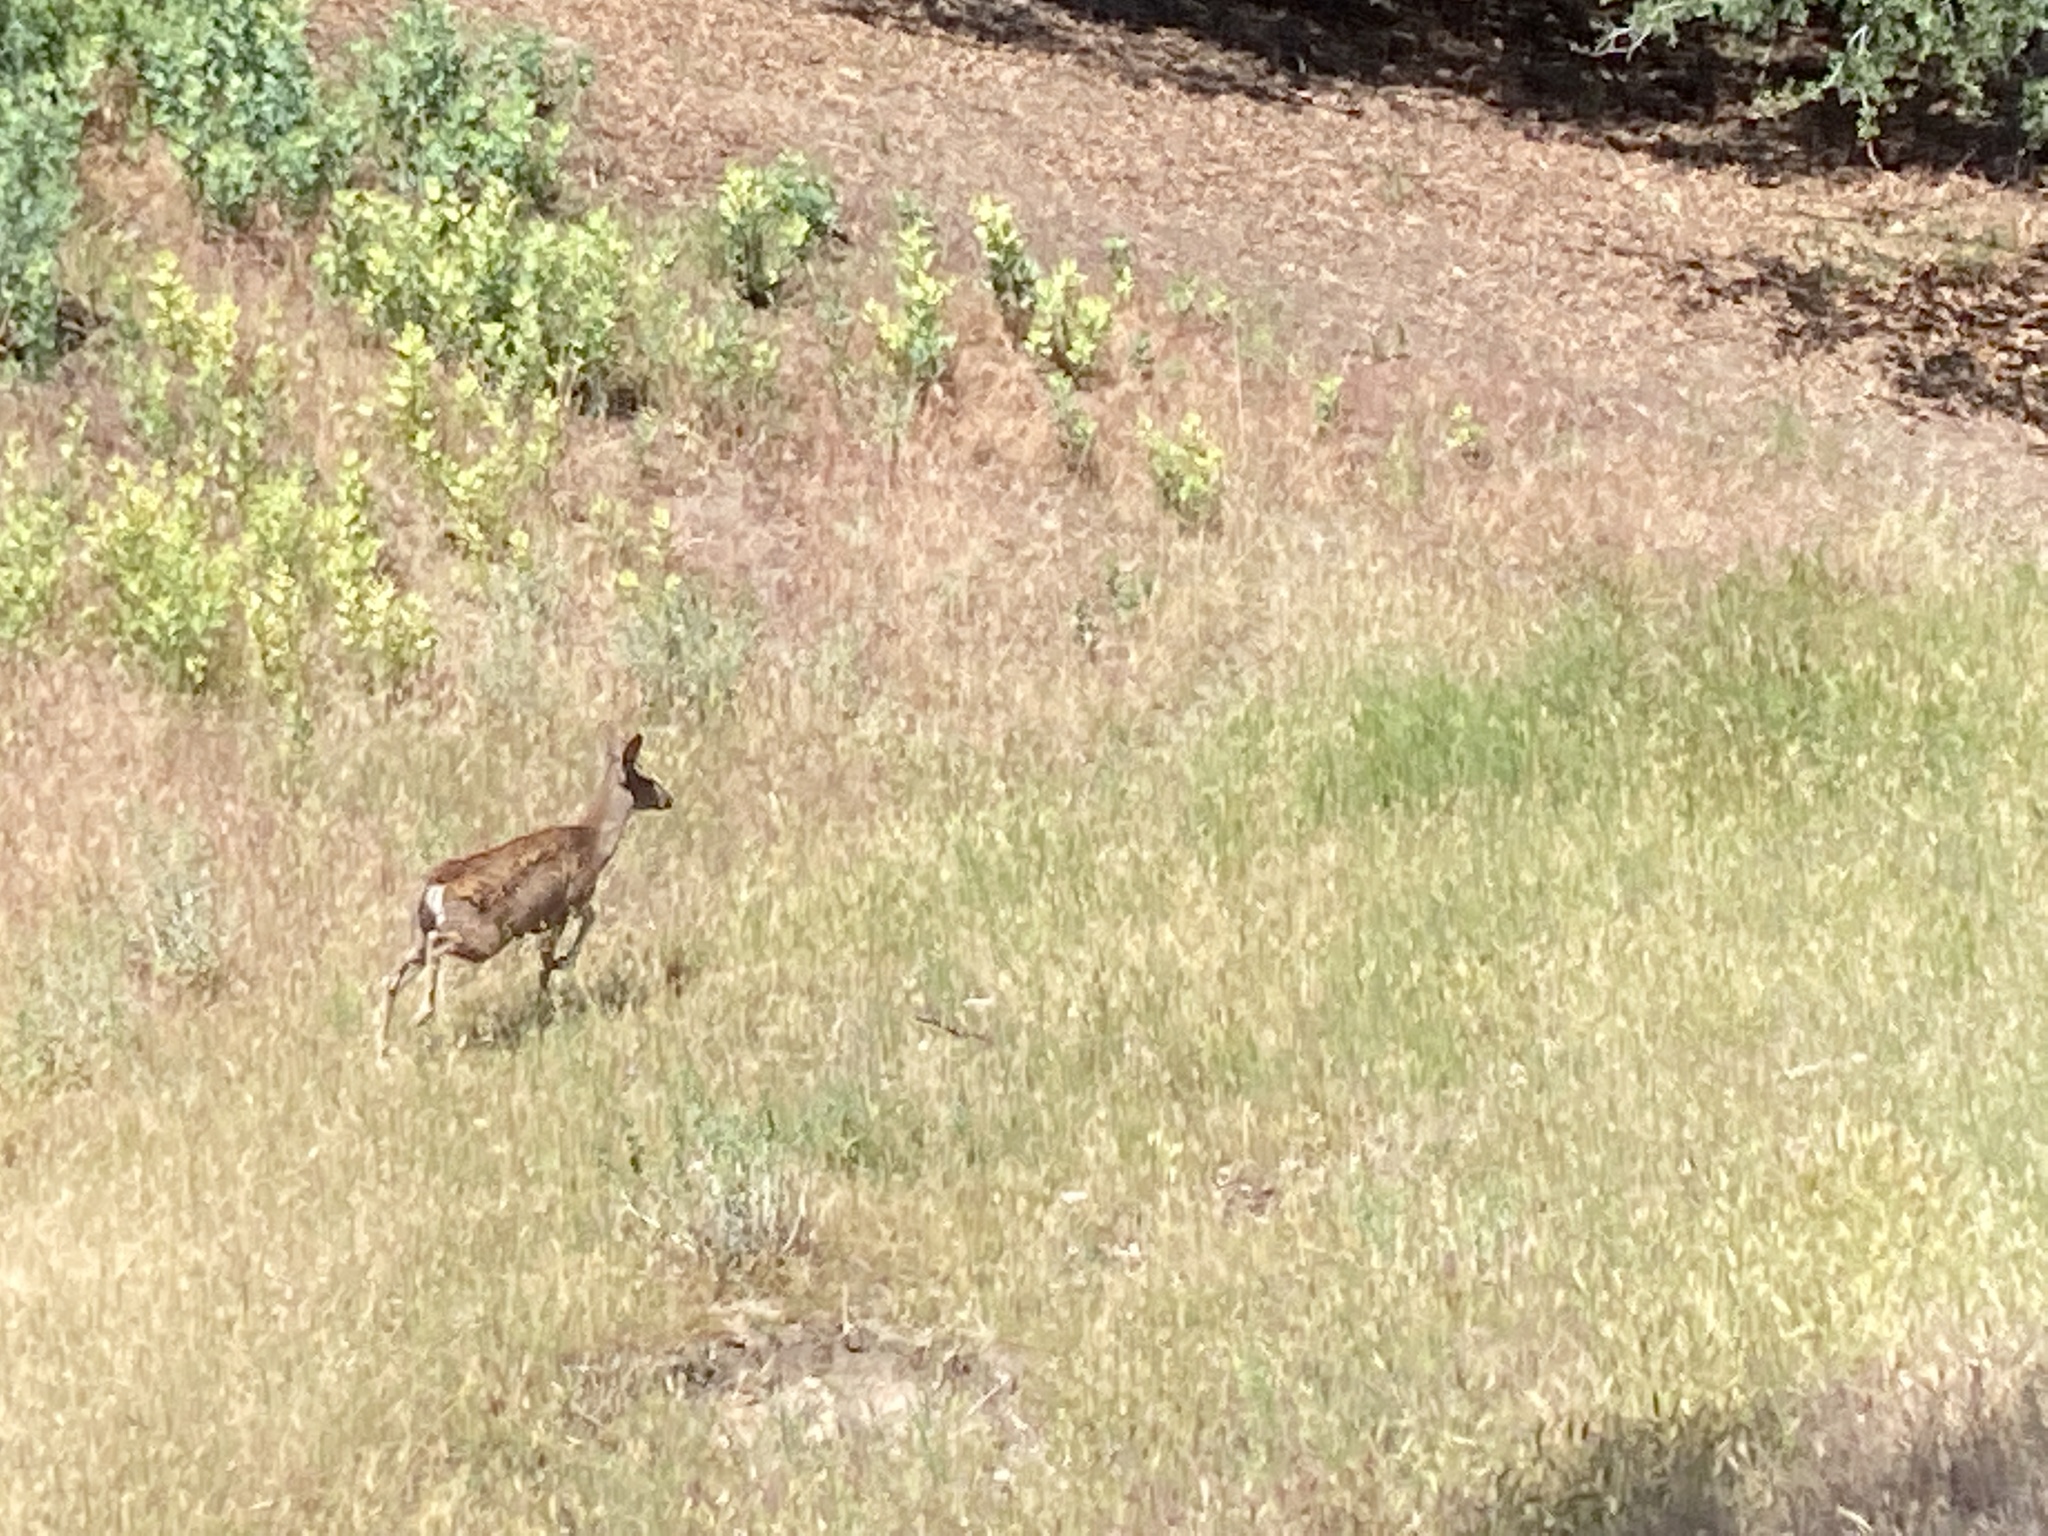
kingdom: Animalia
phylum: Chordata
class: Mammalia
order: Artiodactyla
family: Cervidae
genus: Odocoileus
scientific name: Odocoileus hemionus
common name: Mule deer
